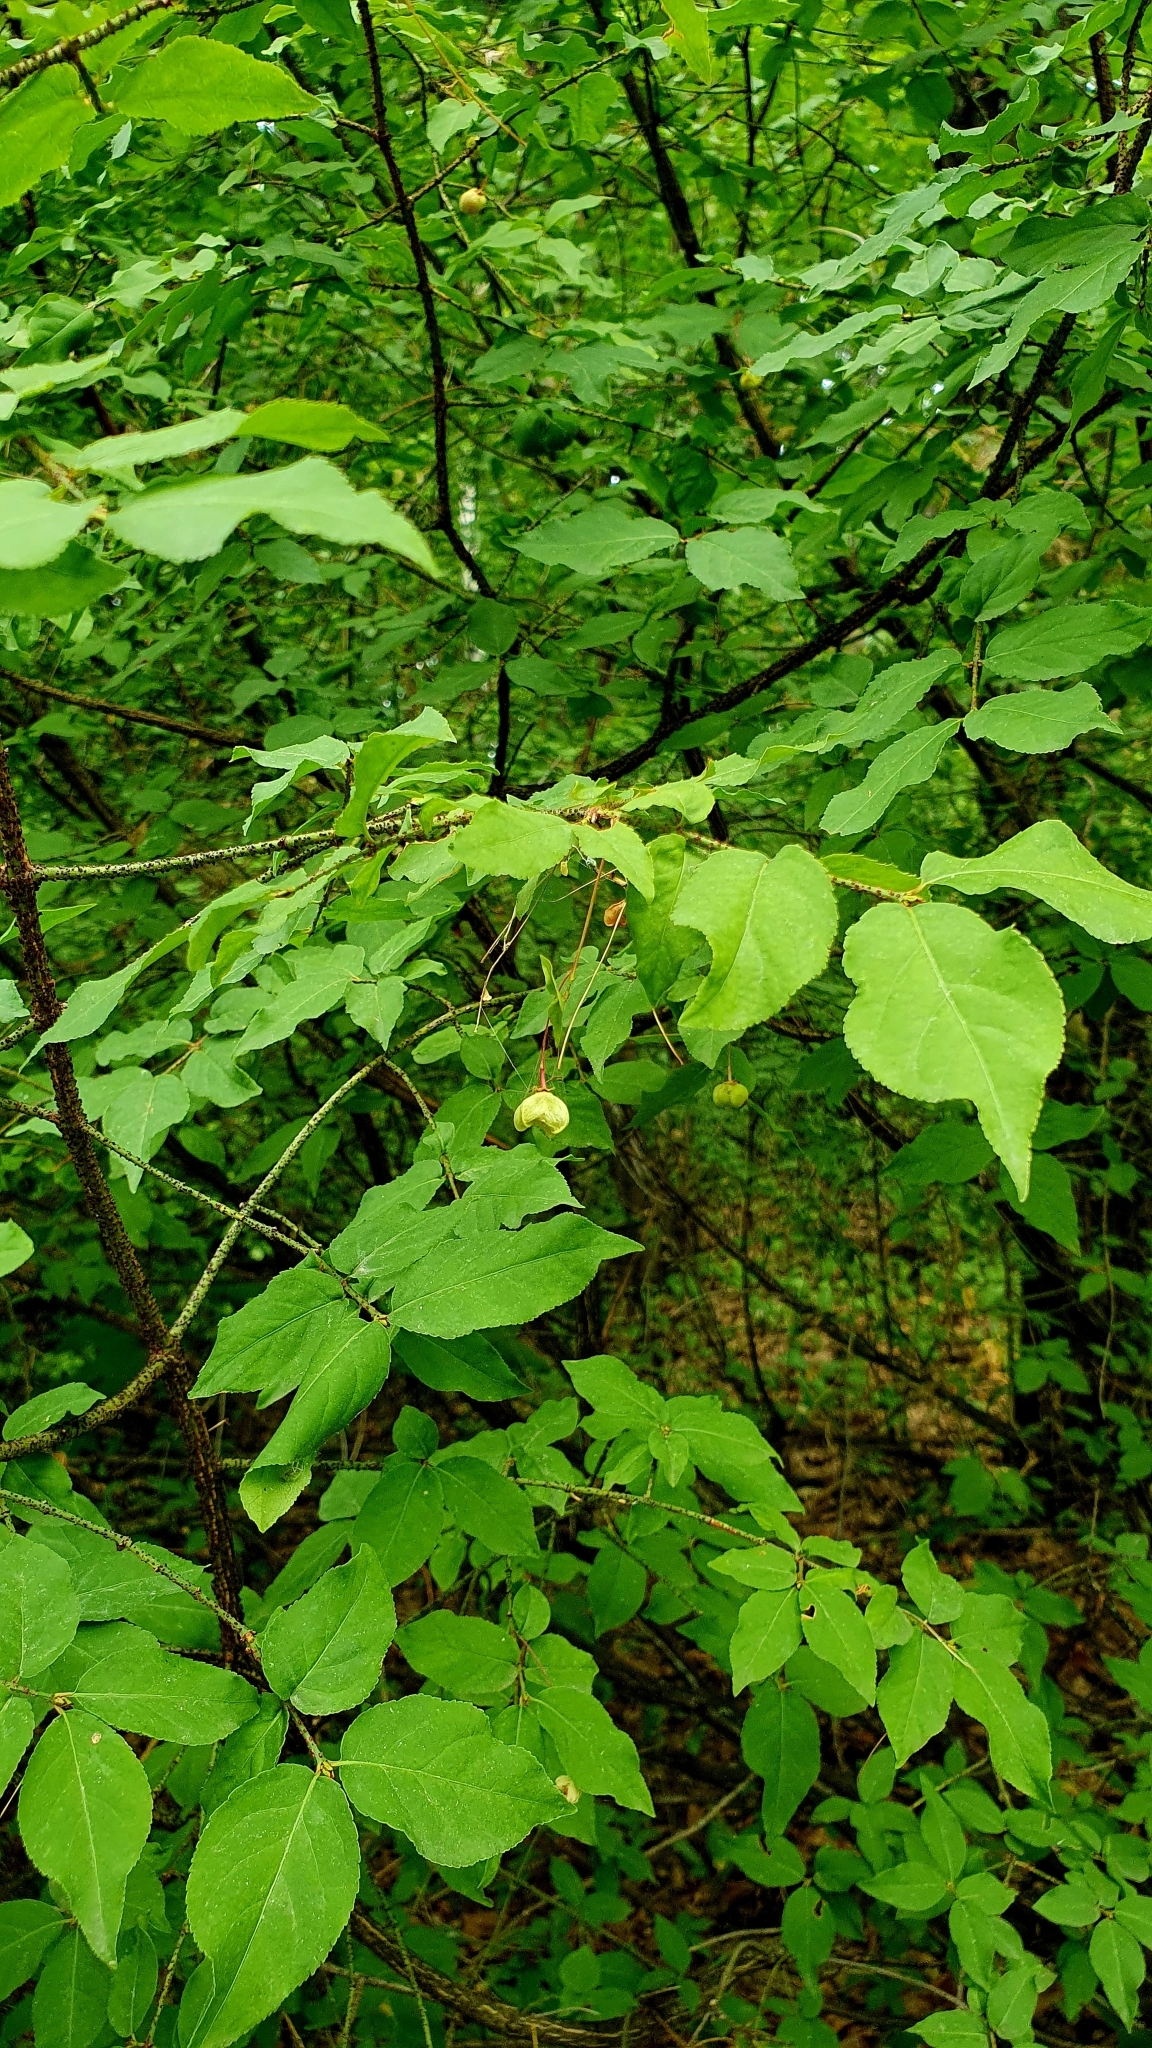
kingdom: Plantae
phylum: Tracheophyta
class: Magnoliopsida
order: Celastrales
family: Celastraceae
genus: Euonymus
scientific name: Euonymus verrucosus
